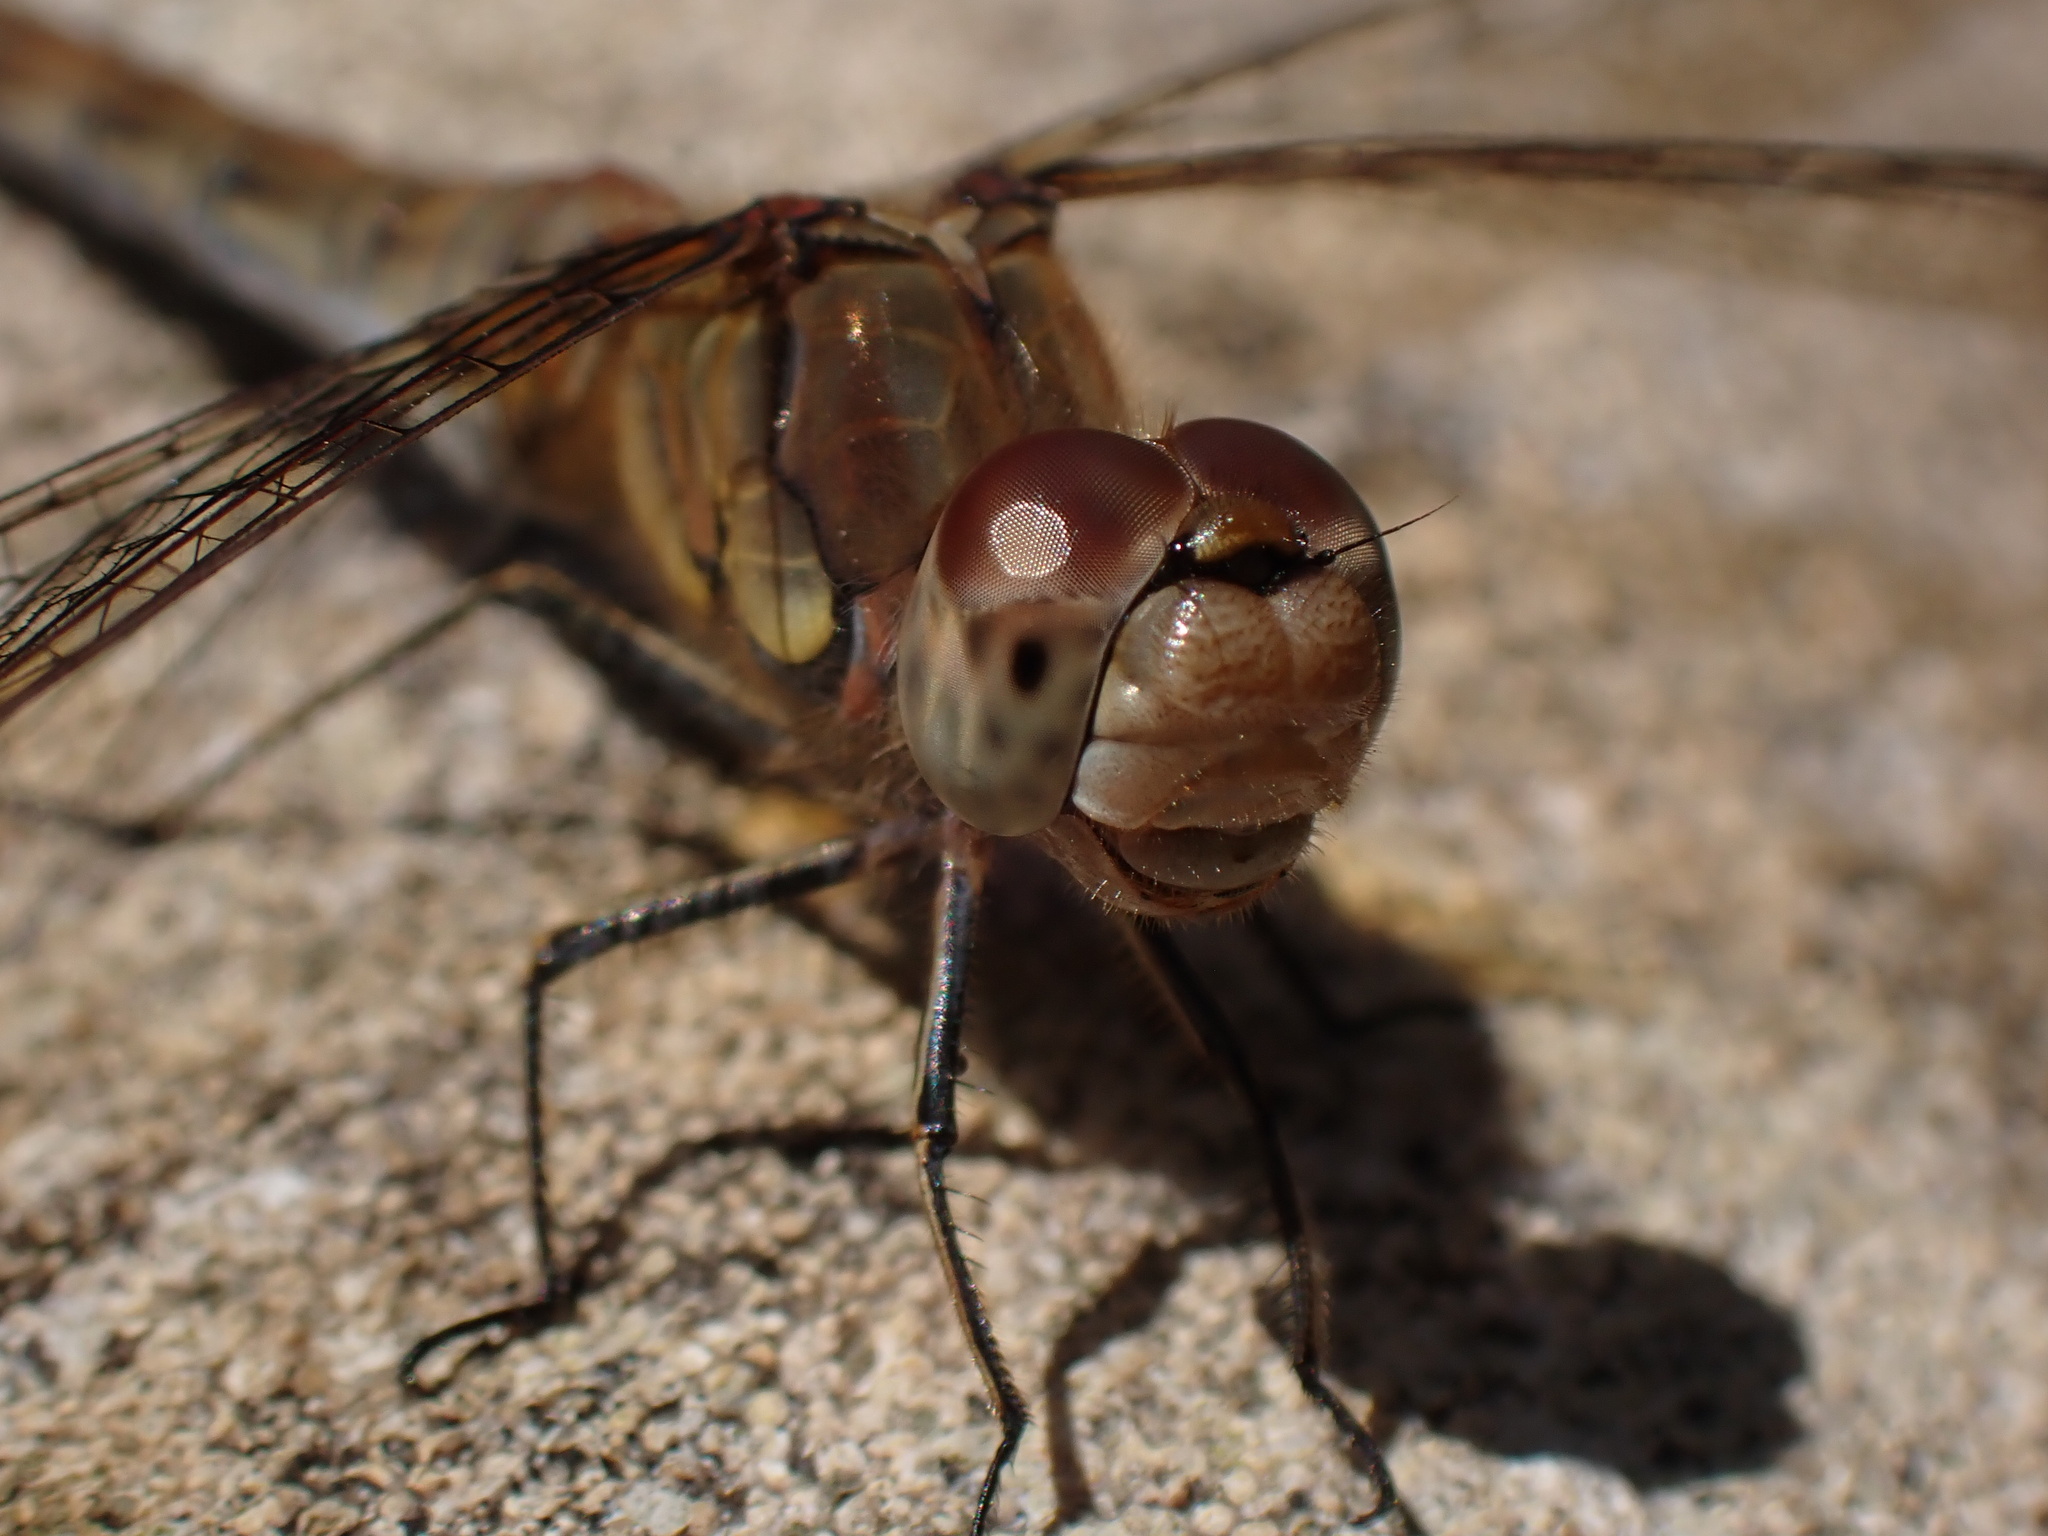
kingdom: Animalia
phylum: Arthropoda
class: Insecta
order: Odonata
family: Libellulidae
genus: Sympetrum
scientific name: Sympetrum striolatum
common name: Common darter
